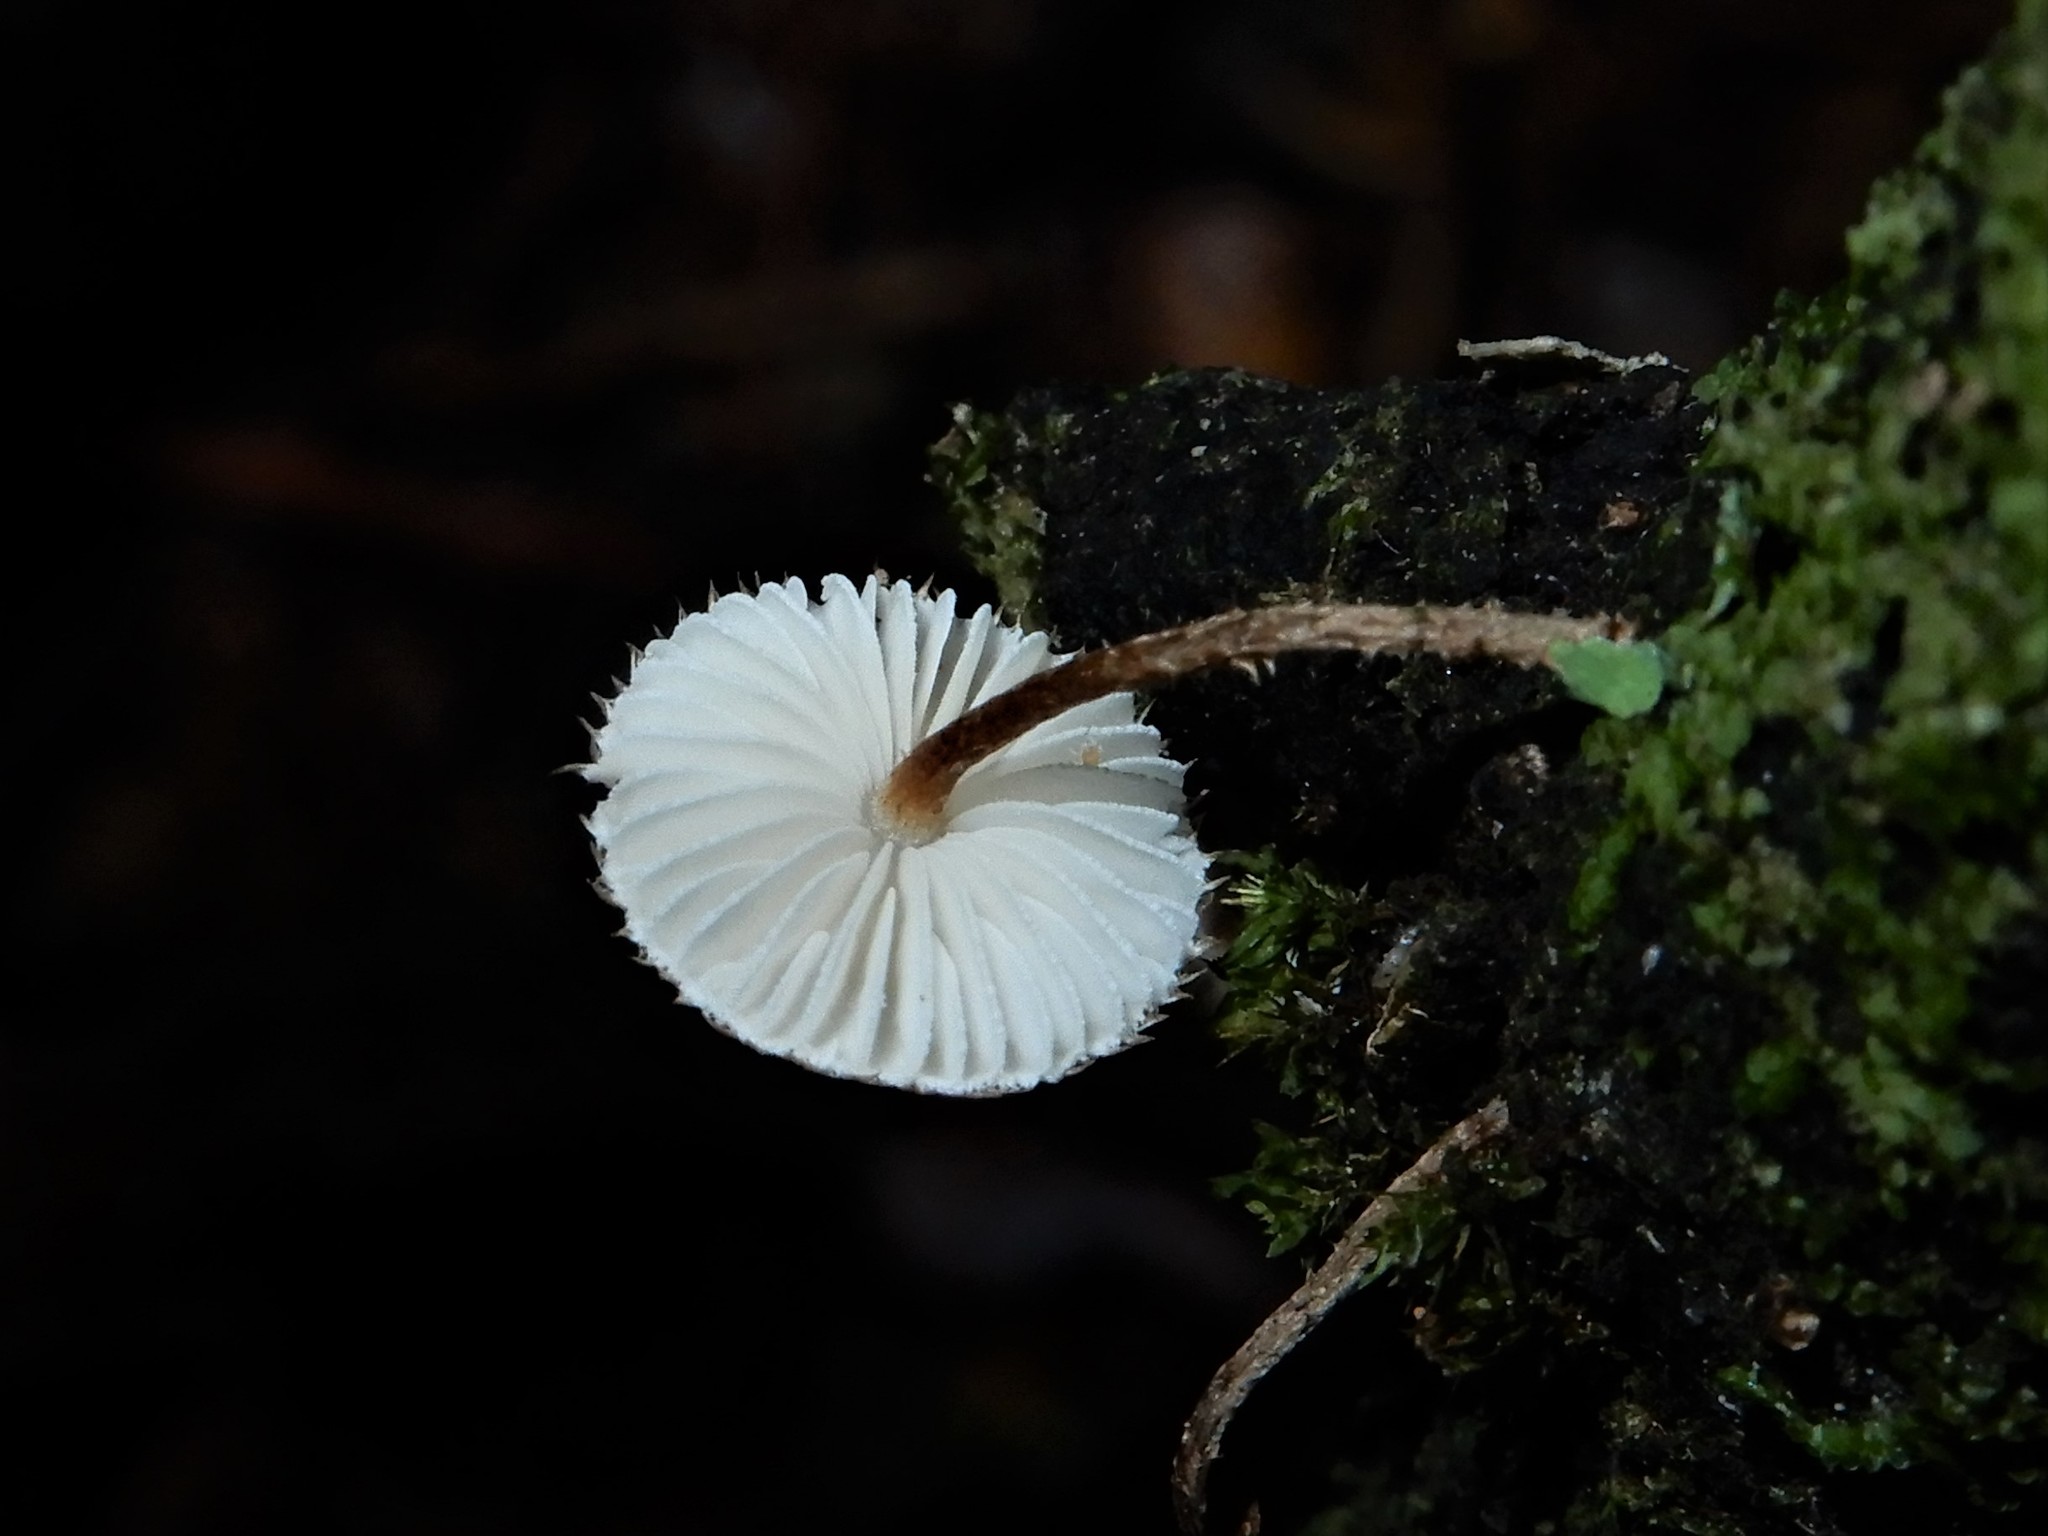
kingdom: Fungi
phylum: Basidiomycota
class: Agaricomycetes
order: Agaricales
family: Marasmiaceae
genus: Crinipellis
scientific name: Crinipellis filiformis
